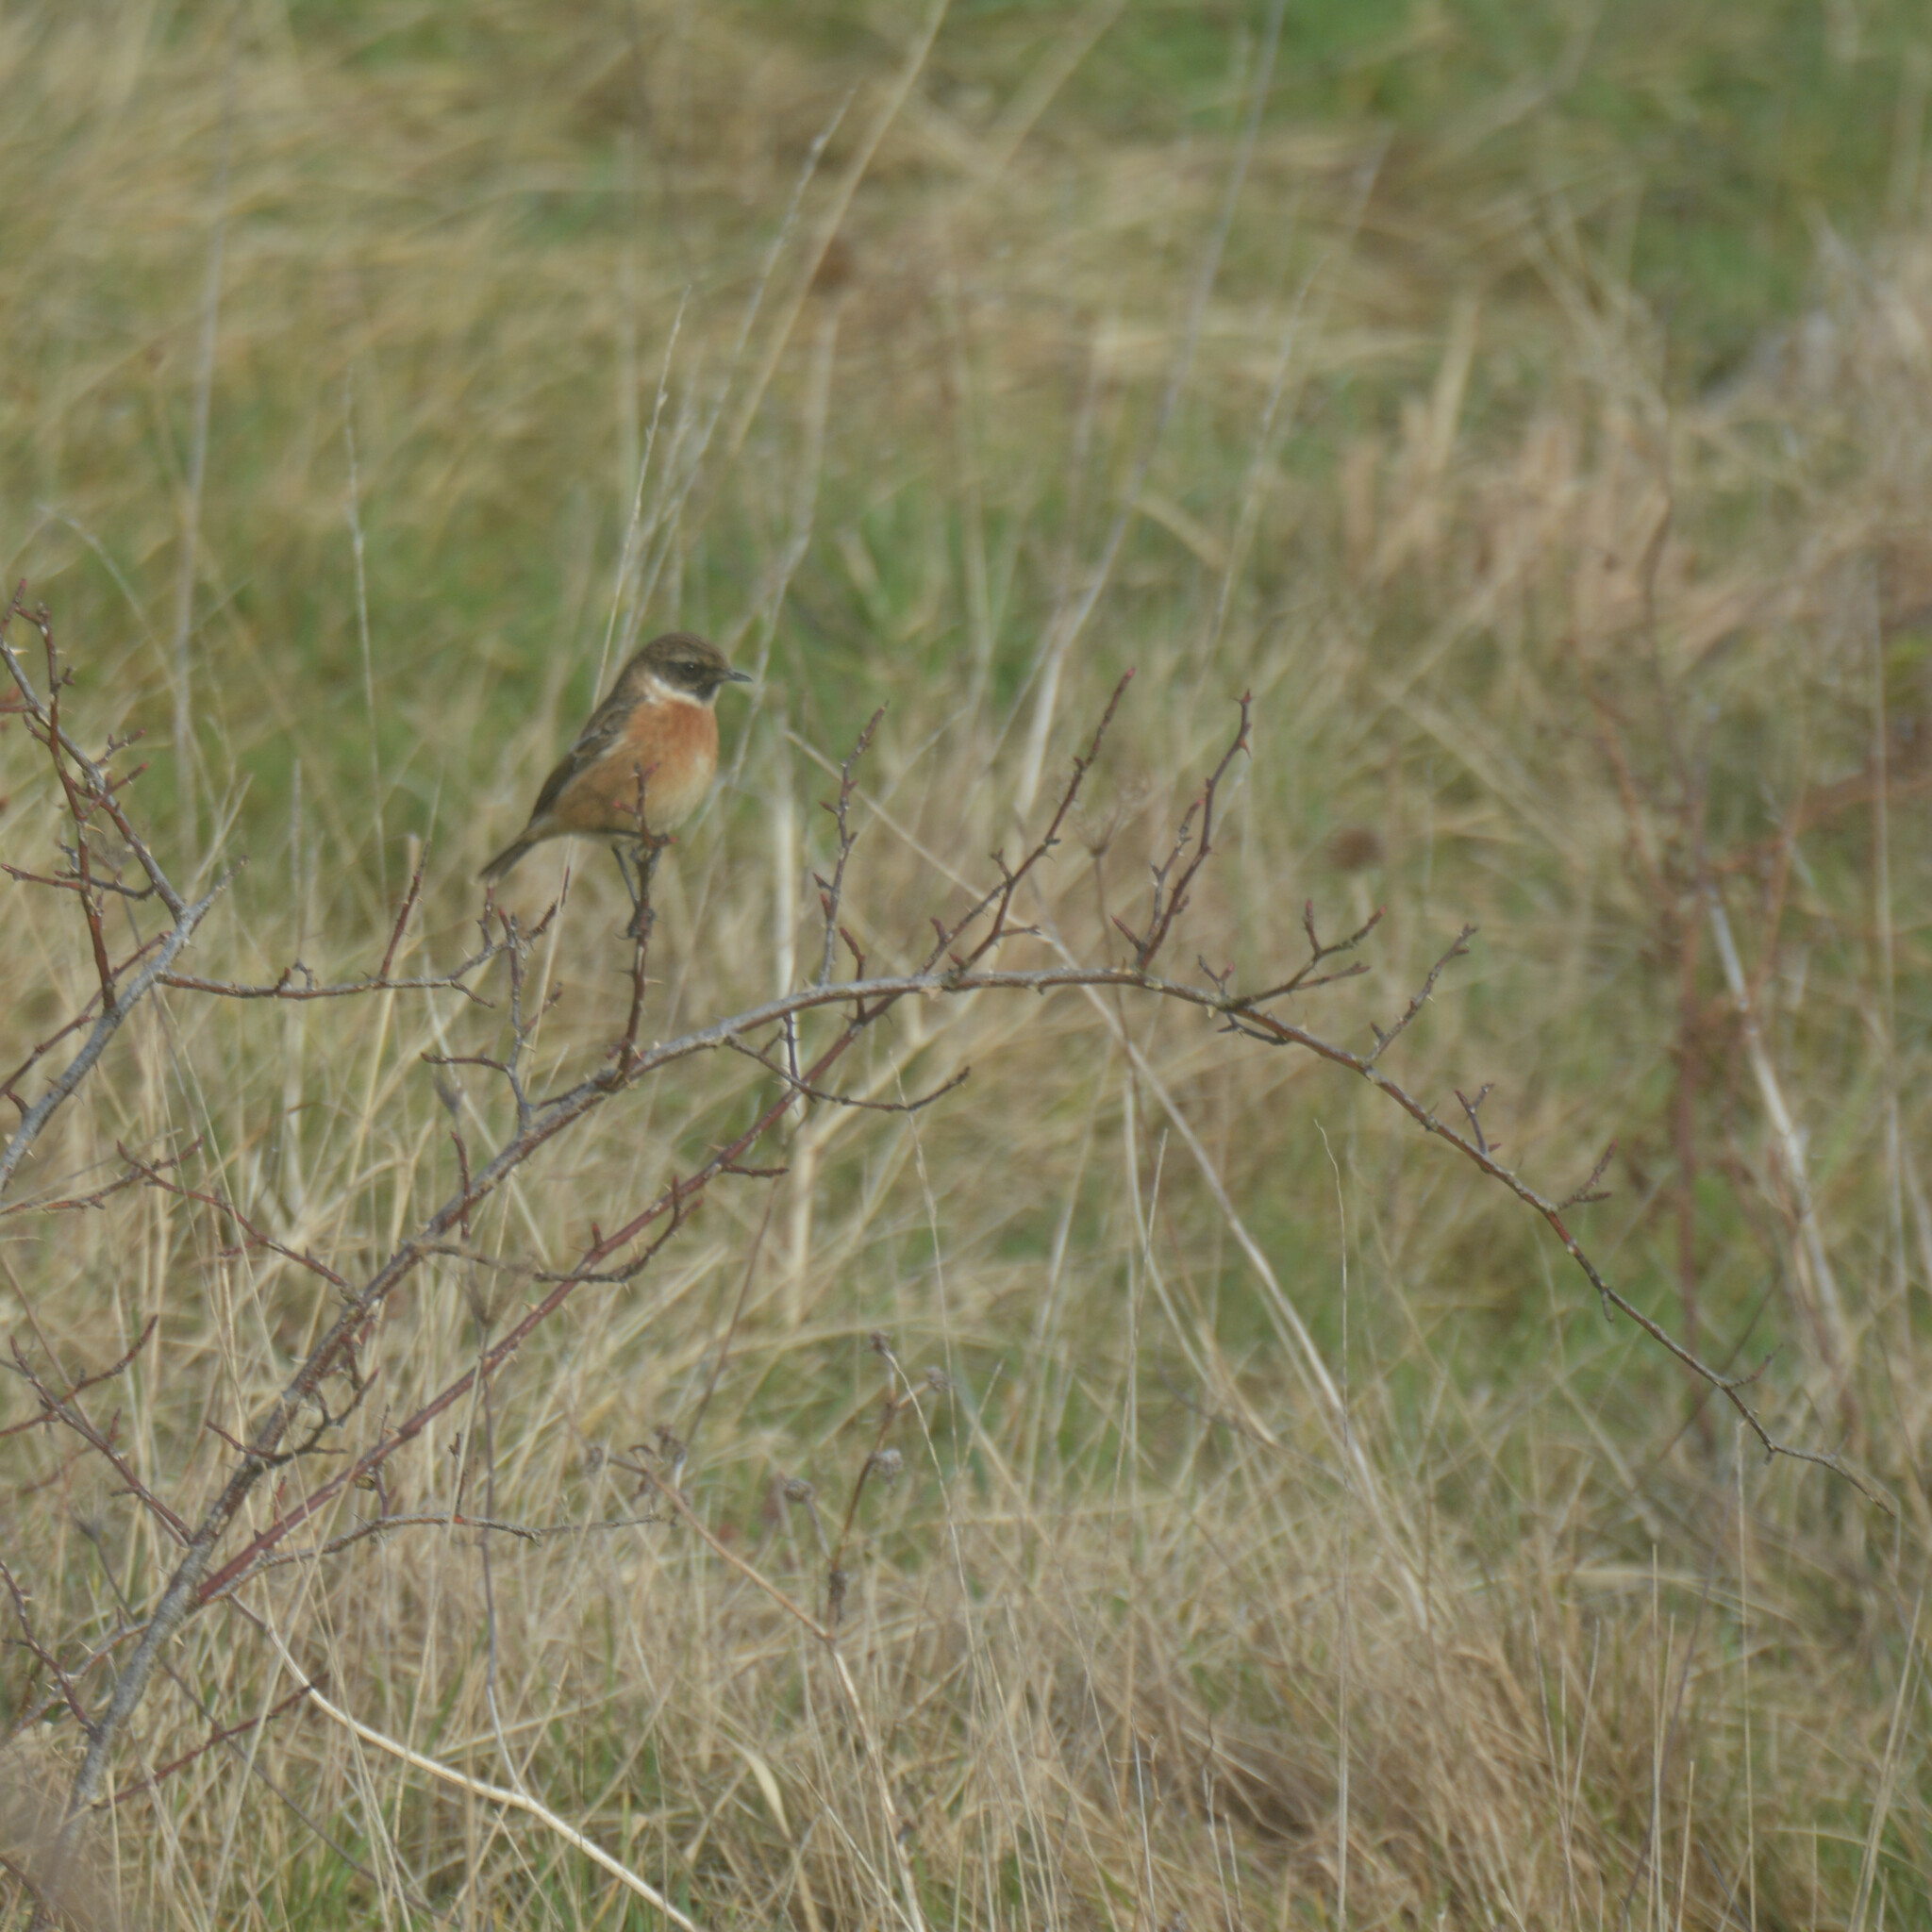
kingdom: Animalia
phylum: Chordata
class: Aves
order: Passeriformes
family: Muscicapidae
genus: Saxicola
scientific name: Saxicola rubicola
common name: European stonechat
